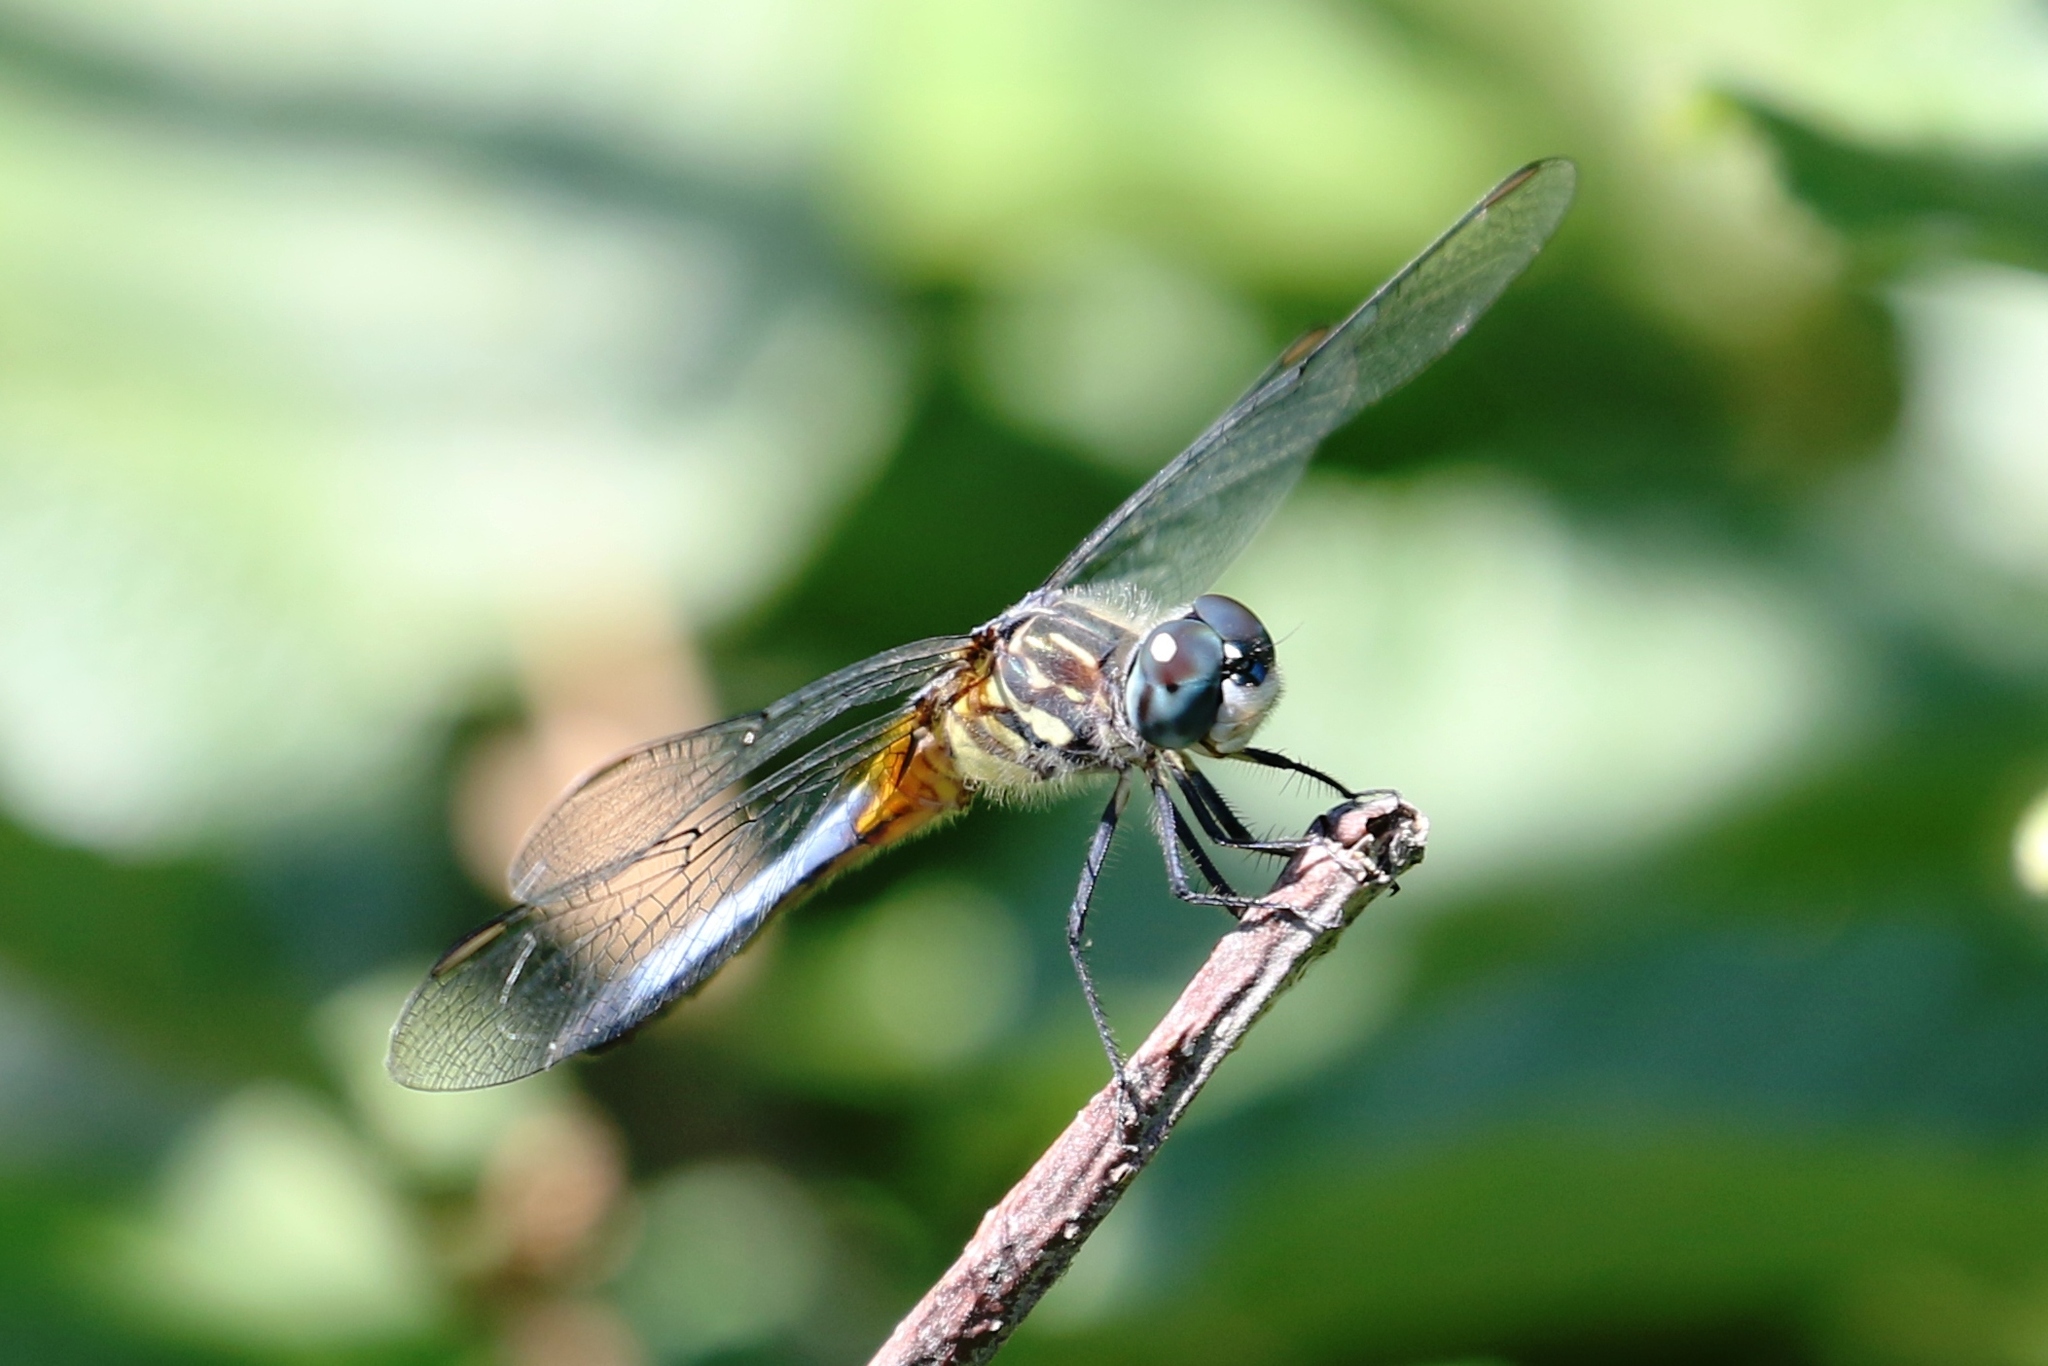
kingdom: Animalia
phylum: Arthropoda
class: Insecta
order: Odonata
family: Libellulidae
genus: Pachydiplax
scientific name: Pachydiplax longipennis
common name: Blue dasher
